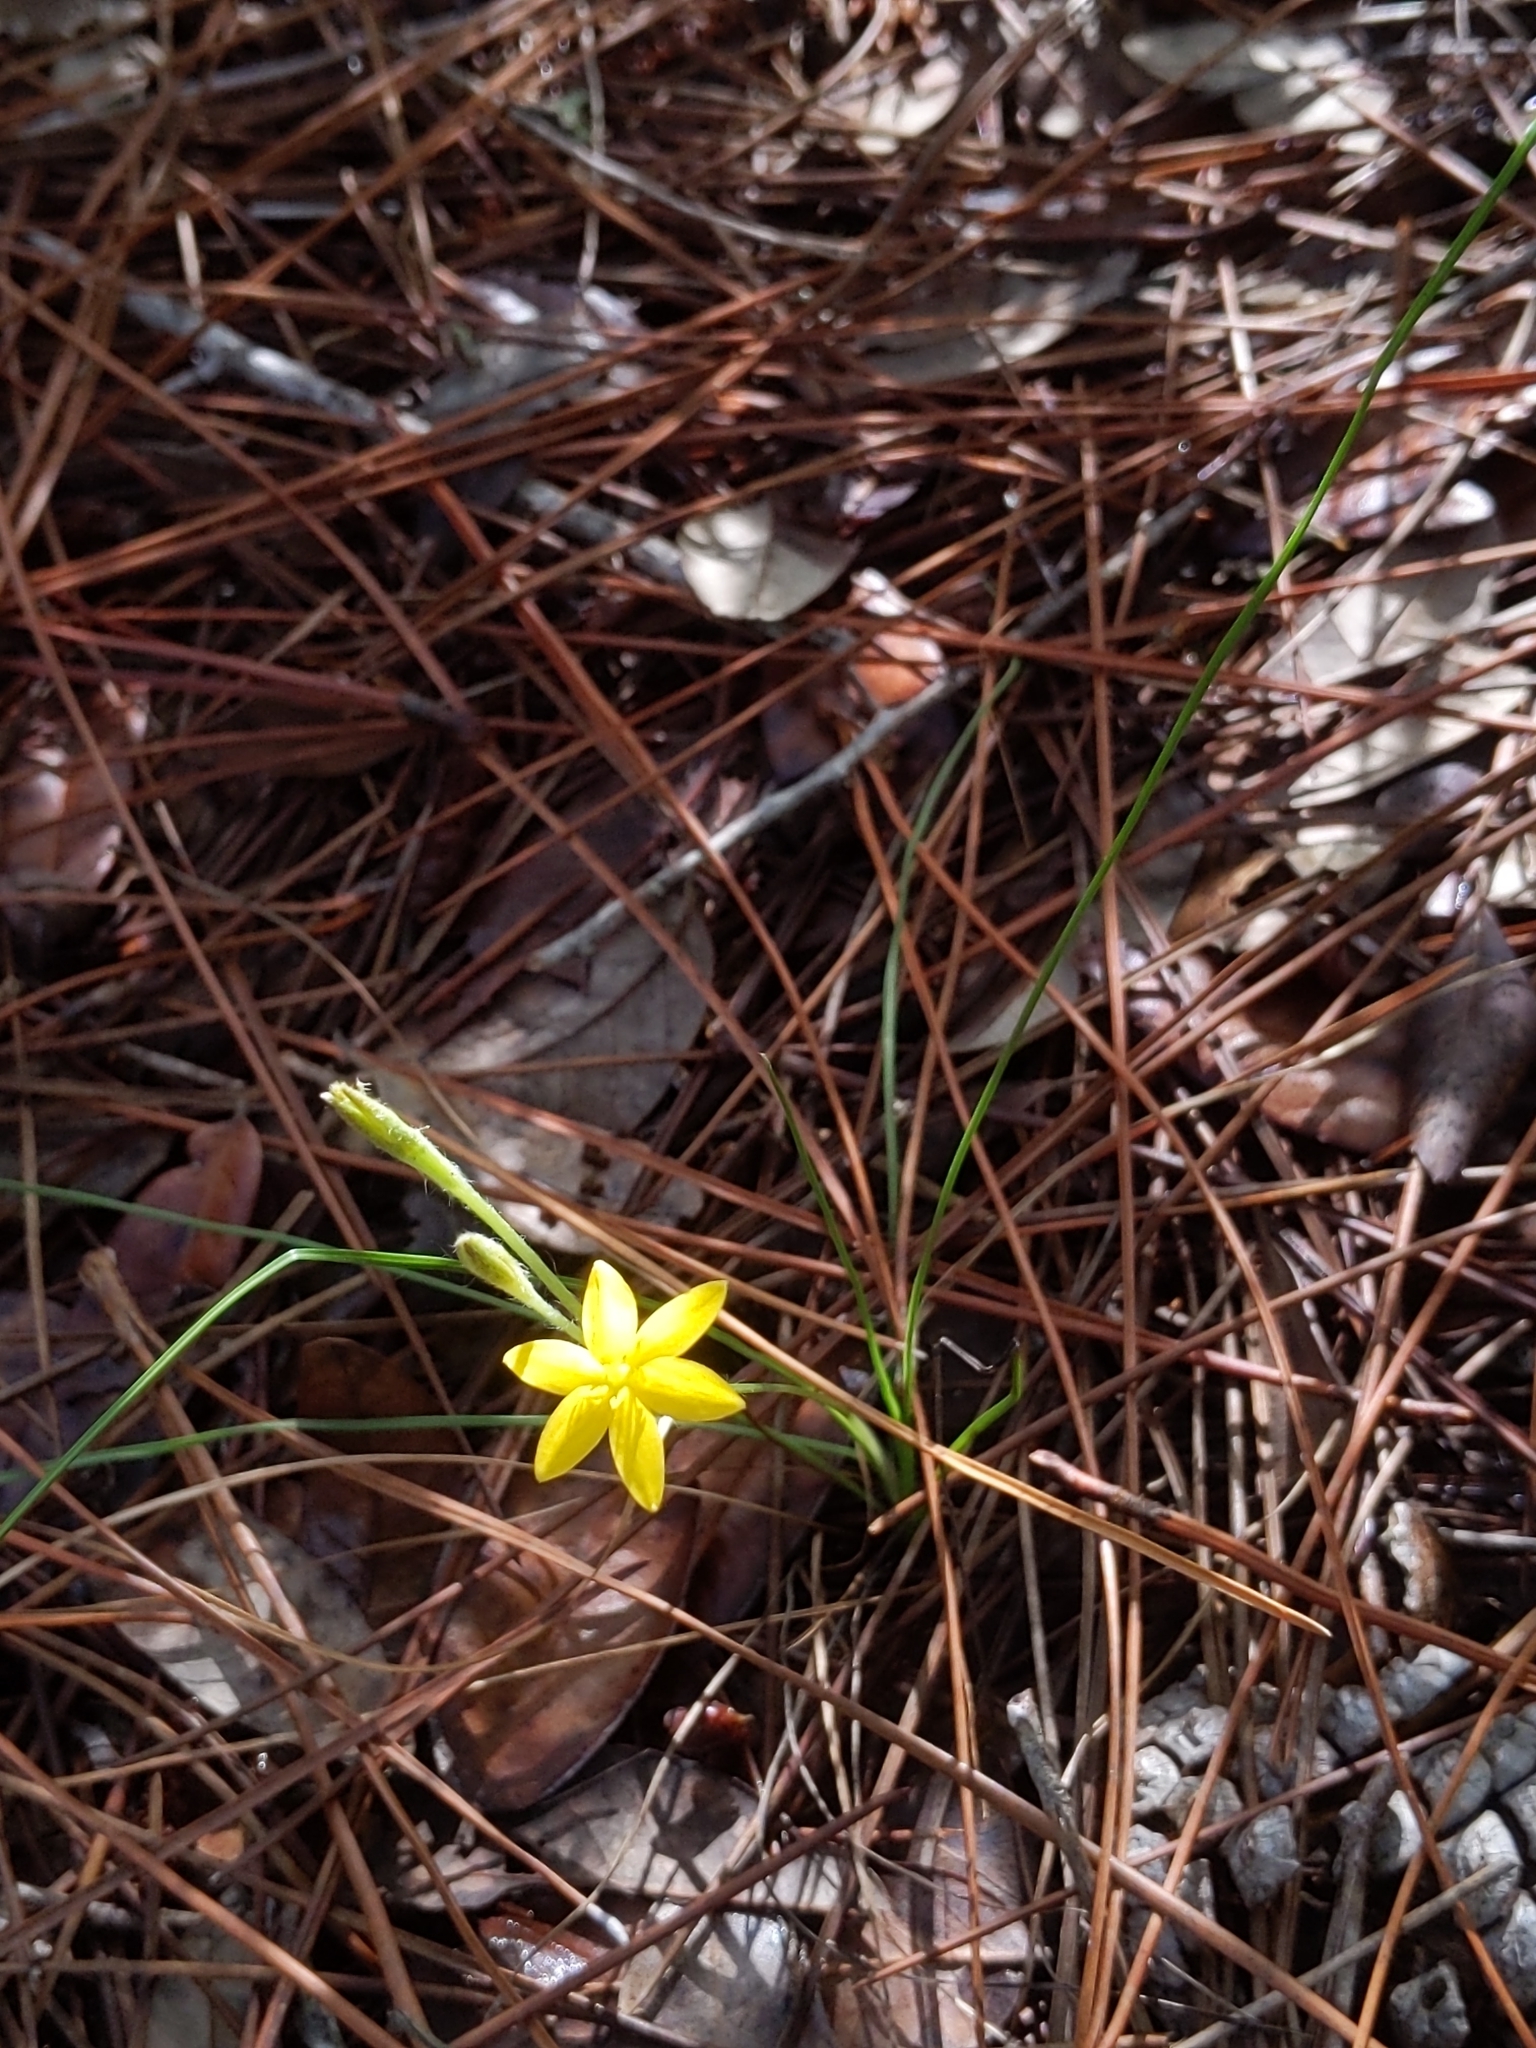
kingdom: Plantae
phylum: Tracheophyta
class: Liliopsida
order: Asparagales
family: Hypoxidaceae
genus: Hypoxis
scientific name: Hypoxis juncea
